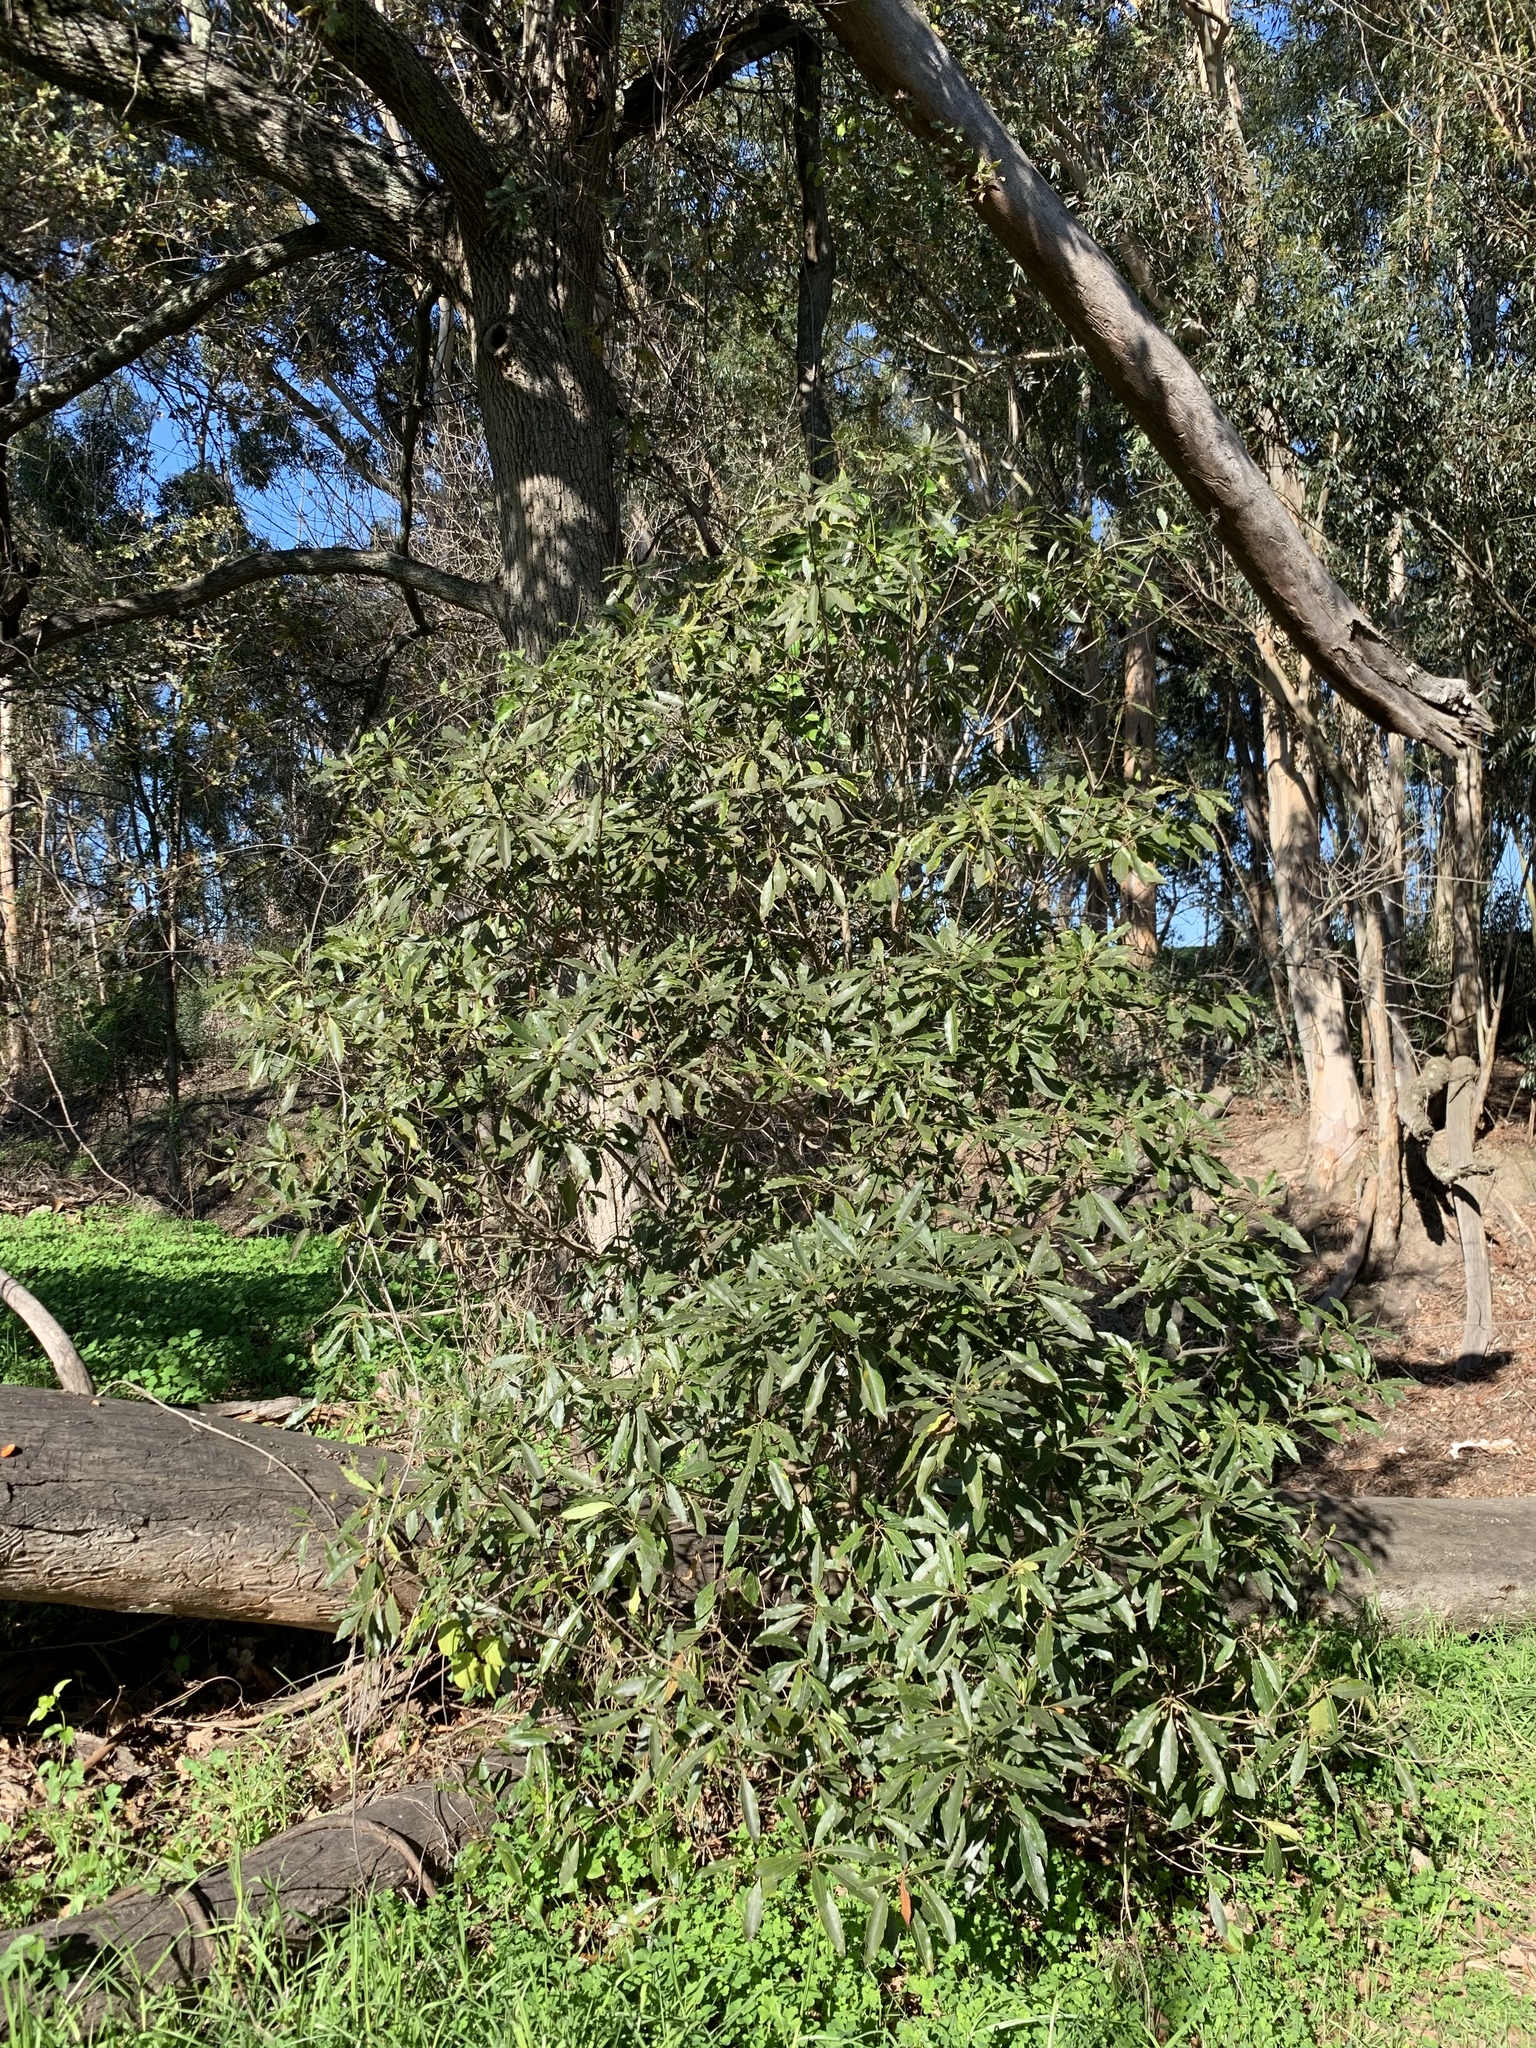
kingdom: Plantae
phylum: Tracheophyta
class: Magnoliopsida
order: Apiales
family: Pittosporaceae
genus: Pittosporum
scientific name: Pittosporum undulatum
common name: Australian cheesewood
